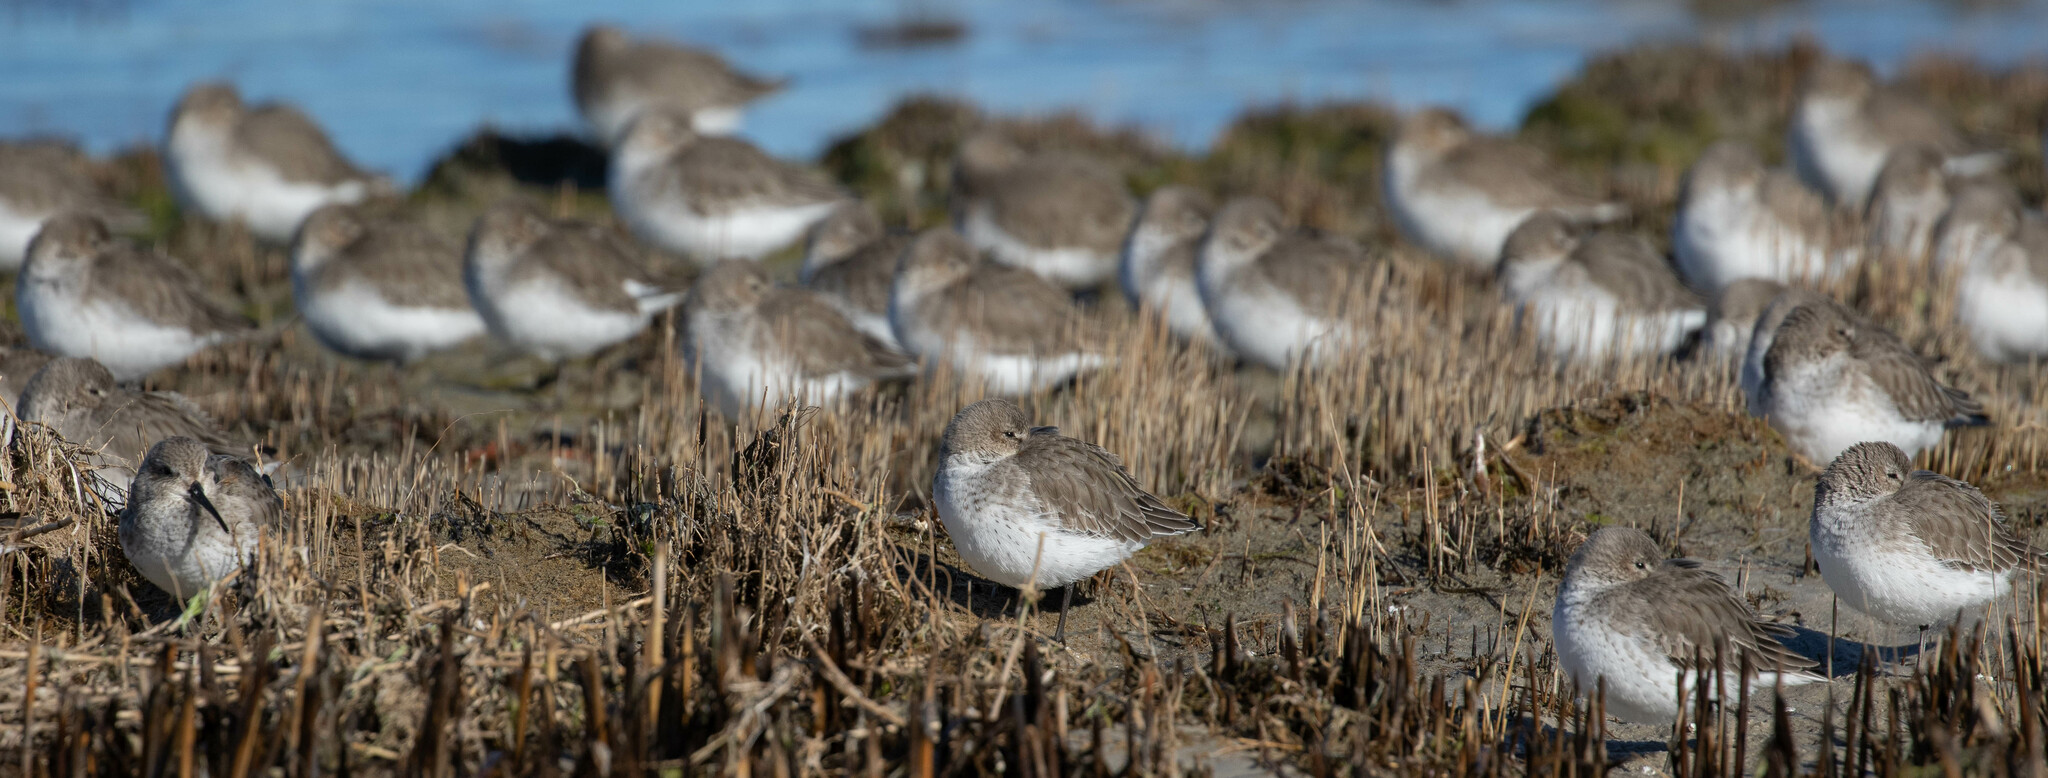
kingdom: Animalia
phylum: Chordata
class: Aves
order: Charadriiformes
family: Scolopacidae
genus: Calidris
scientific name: Calidris alpina
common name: Dunlin
